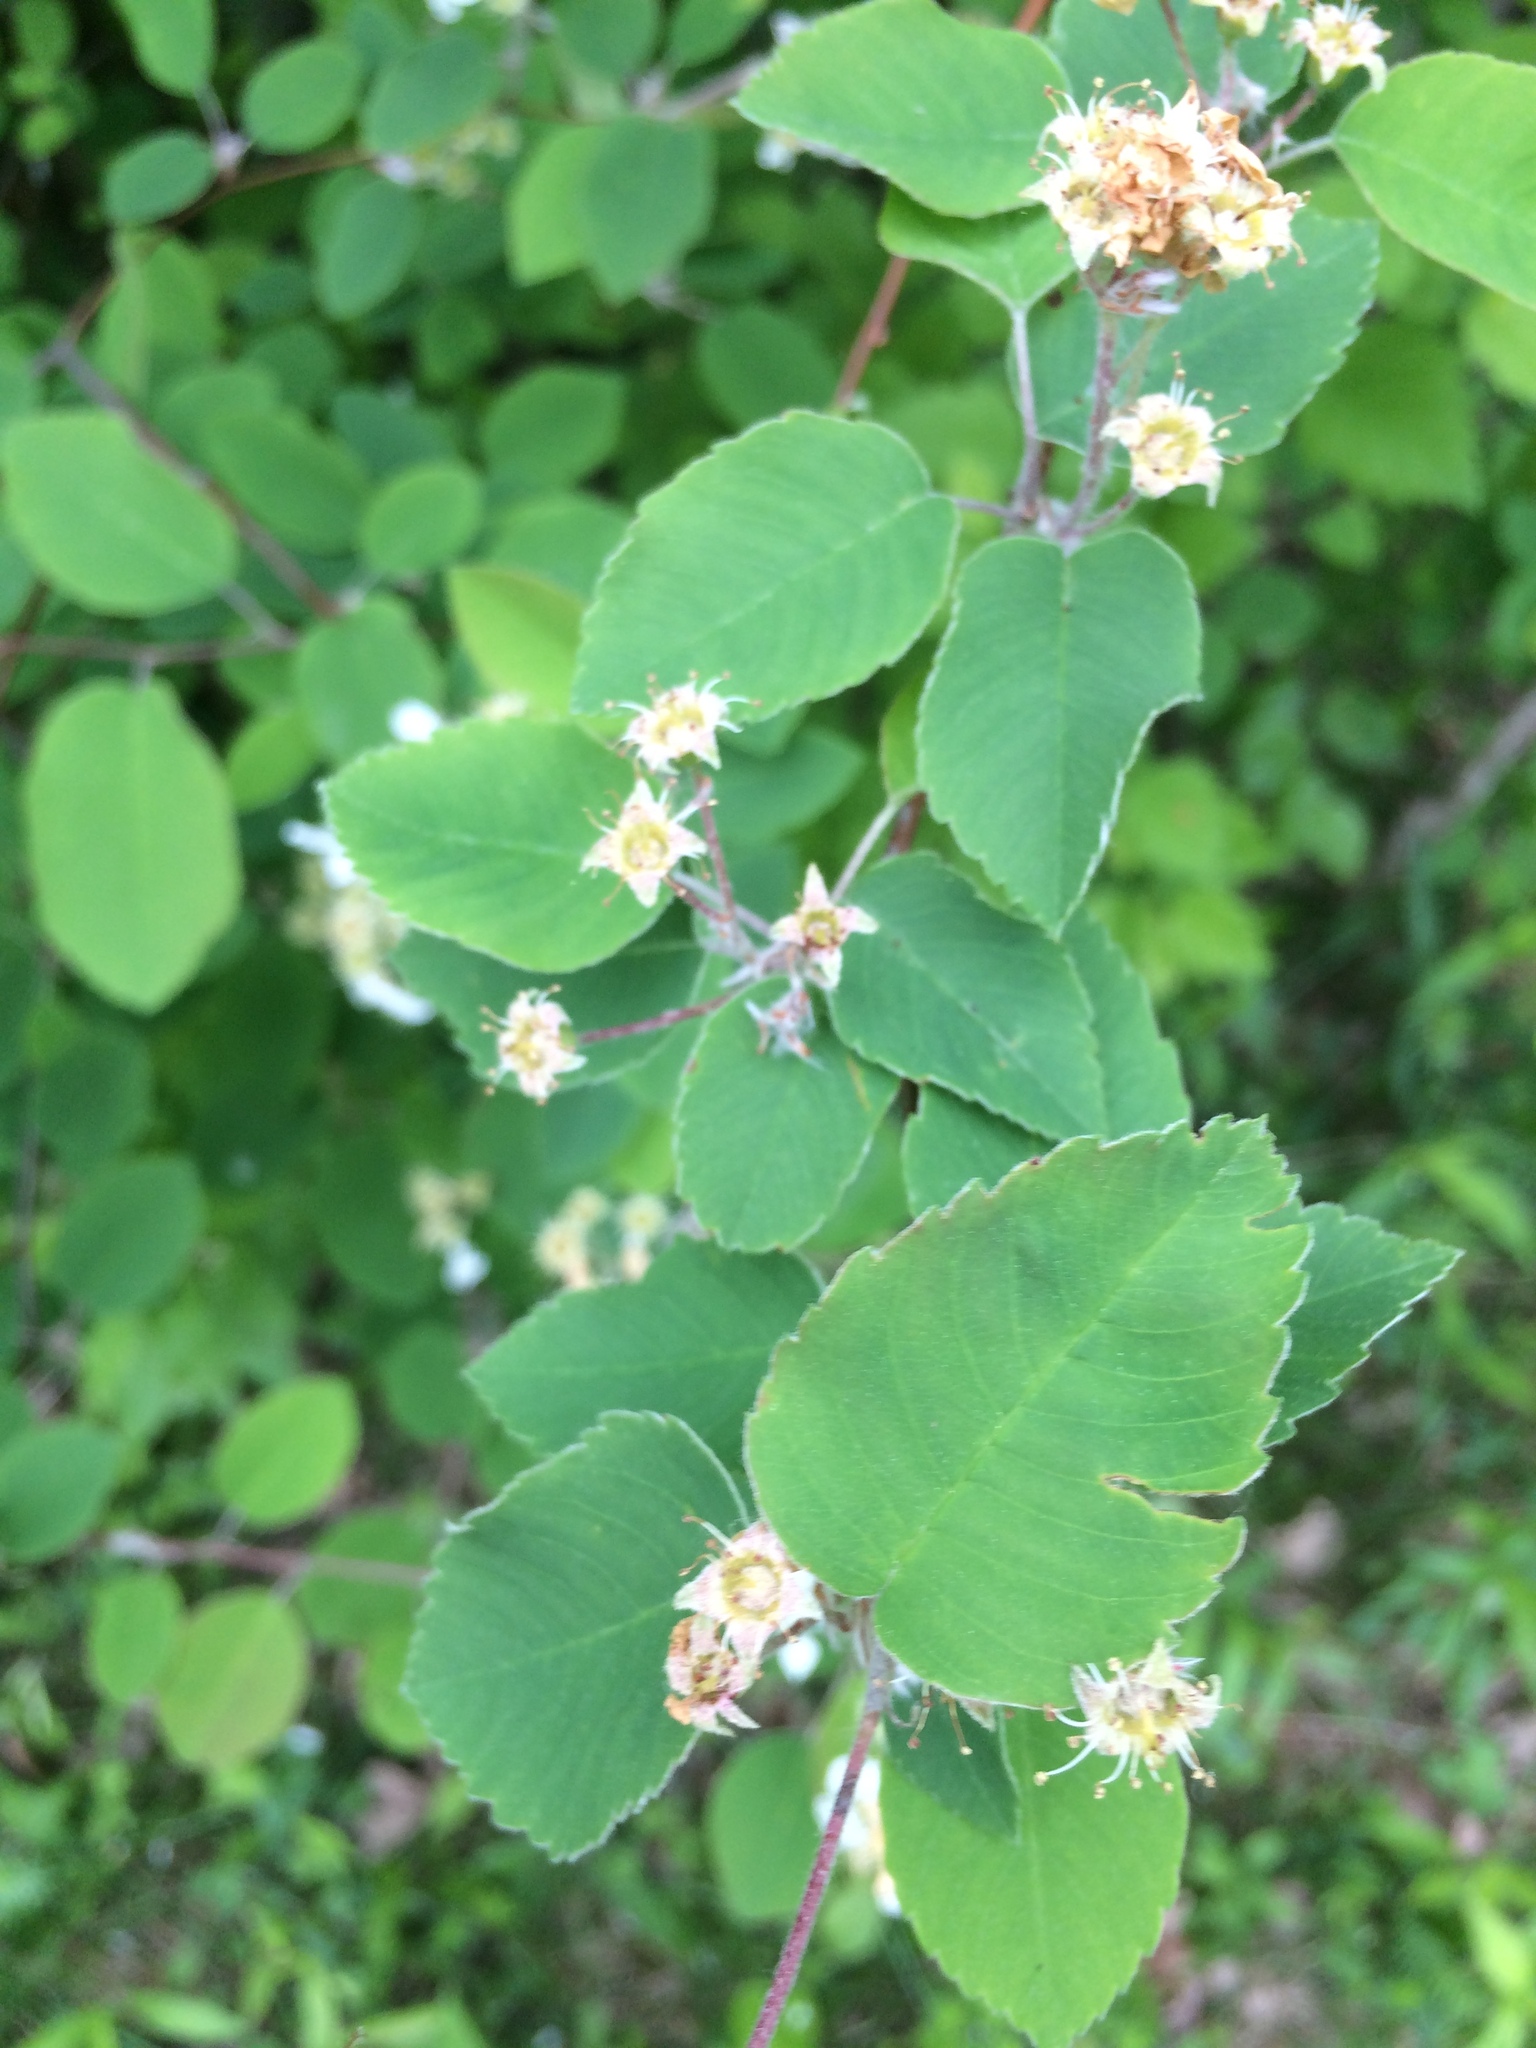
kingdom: Plantae
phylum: Tracheophyta
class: Magnoliopsida
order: Rosales
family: Rosaceae
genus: Amelanchier
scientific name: Amelanchier sanguinea
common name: Huron serviceberry
